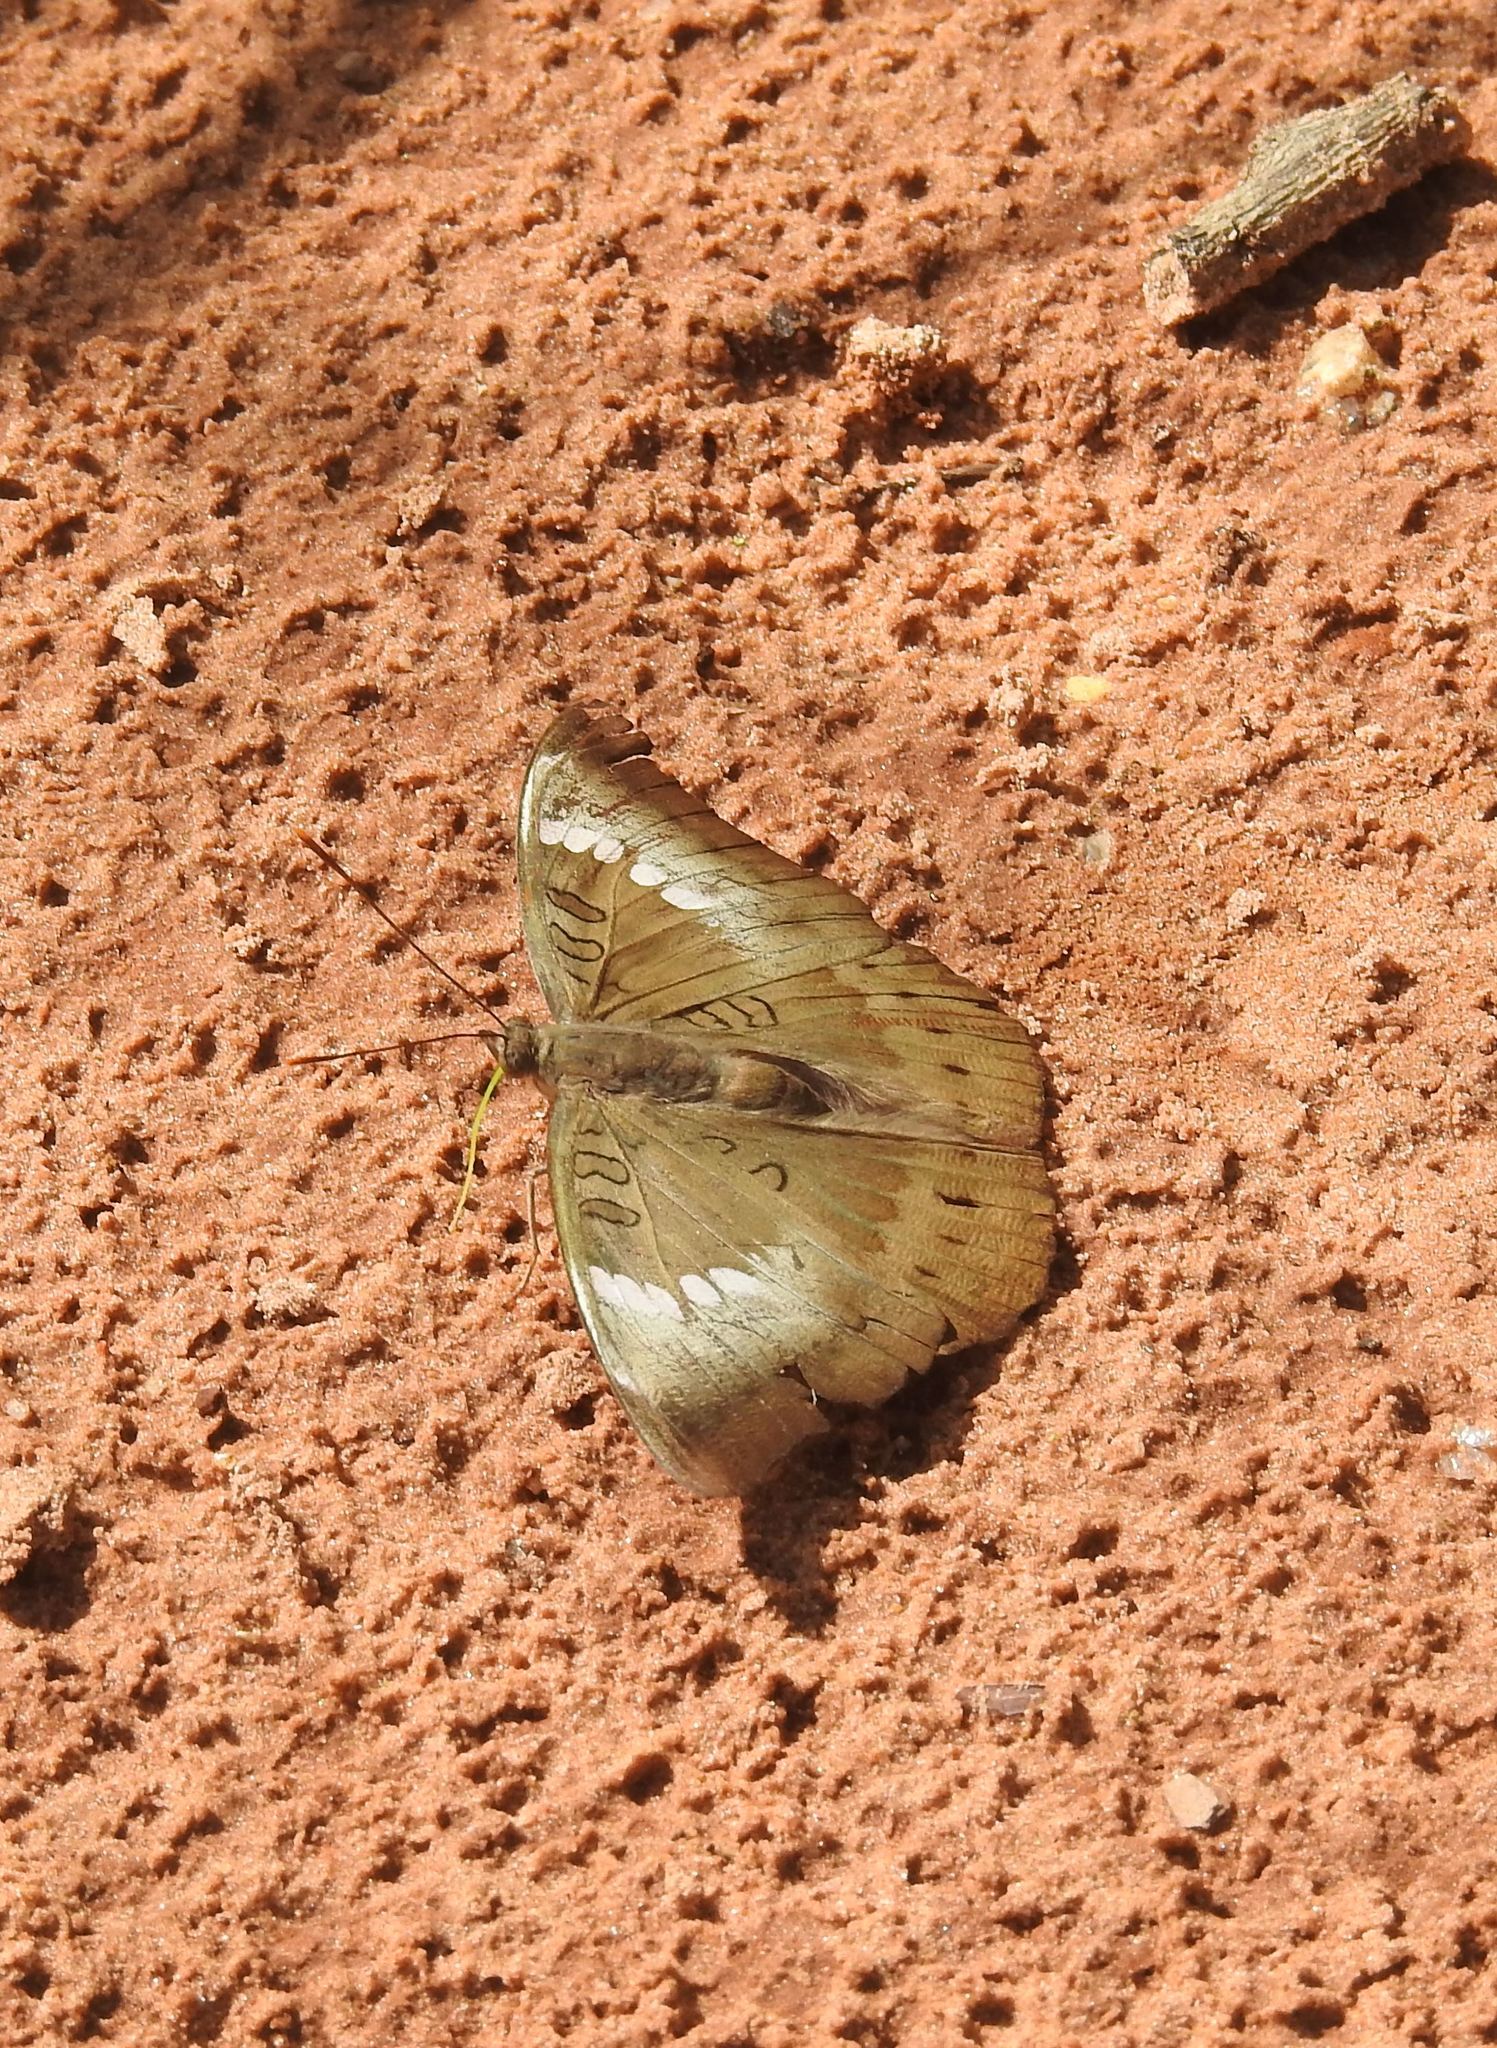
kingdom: Animalia
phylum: Arthropoda
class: Insecta
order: Lepidoptera
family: Nymphalidae
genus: Euthalia
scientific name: Euthalia aconthea
